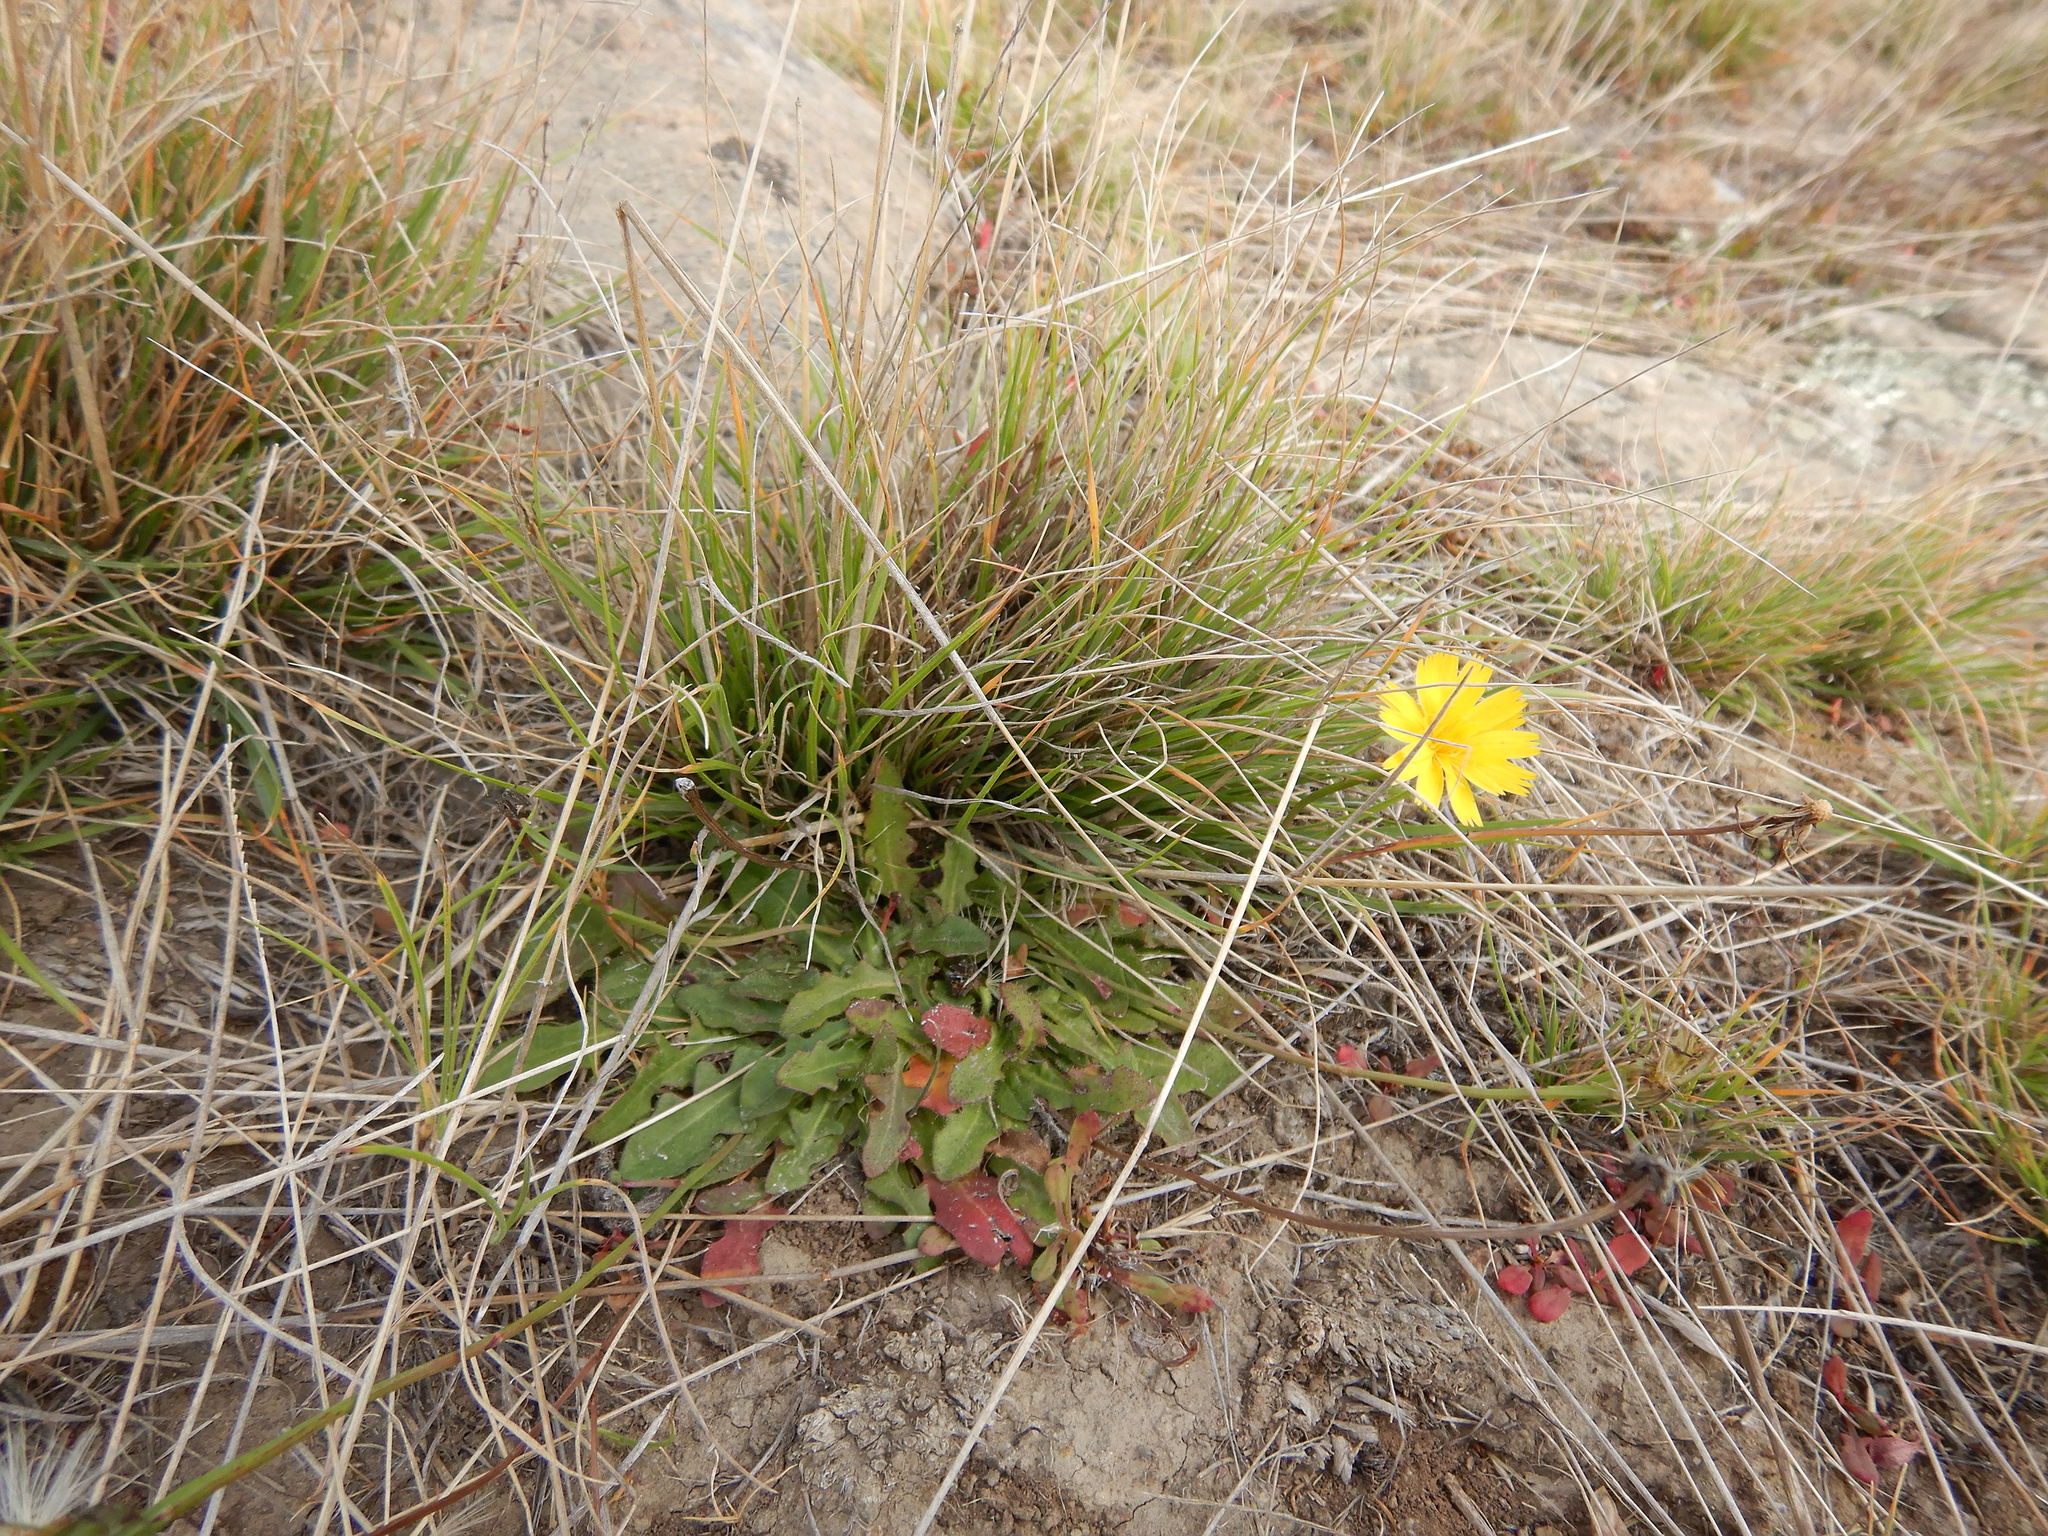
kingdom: Plantae
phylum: Tracheophyta
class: Magnoliopsida
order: Asterales
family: Asteraceae
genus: Hypochaeris
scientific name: Hypochaeris radicata
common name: Flatweed
